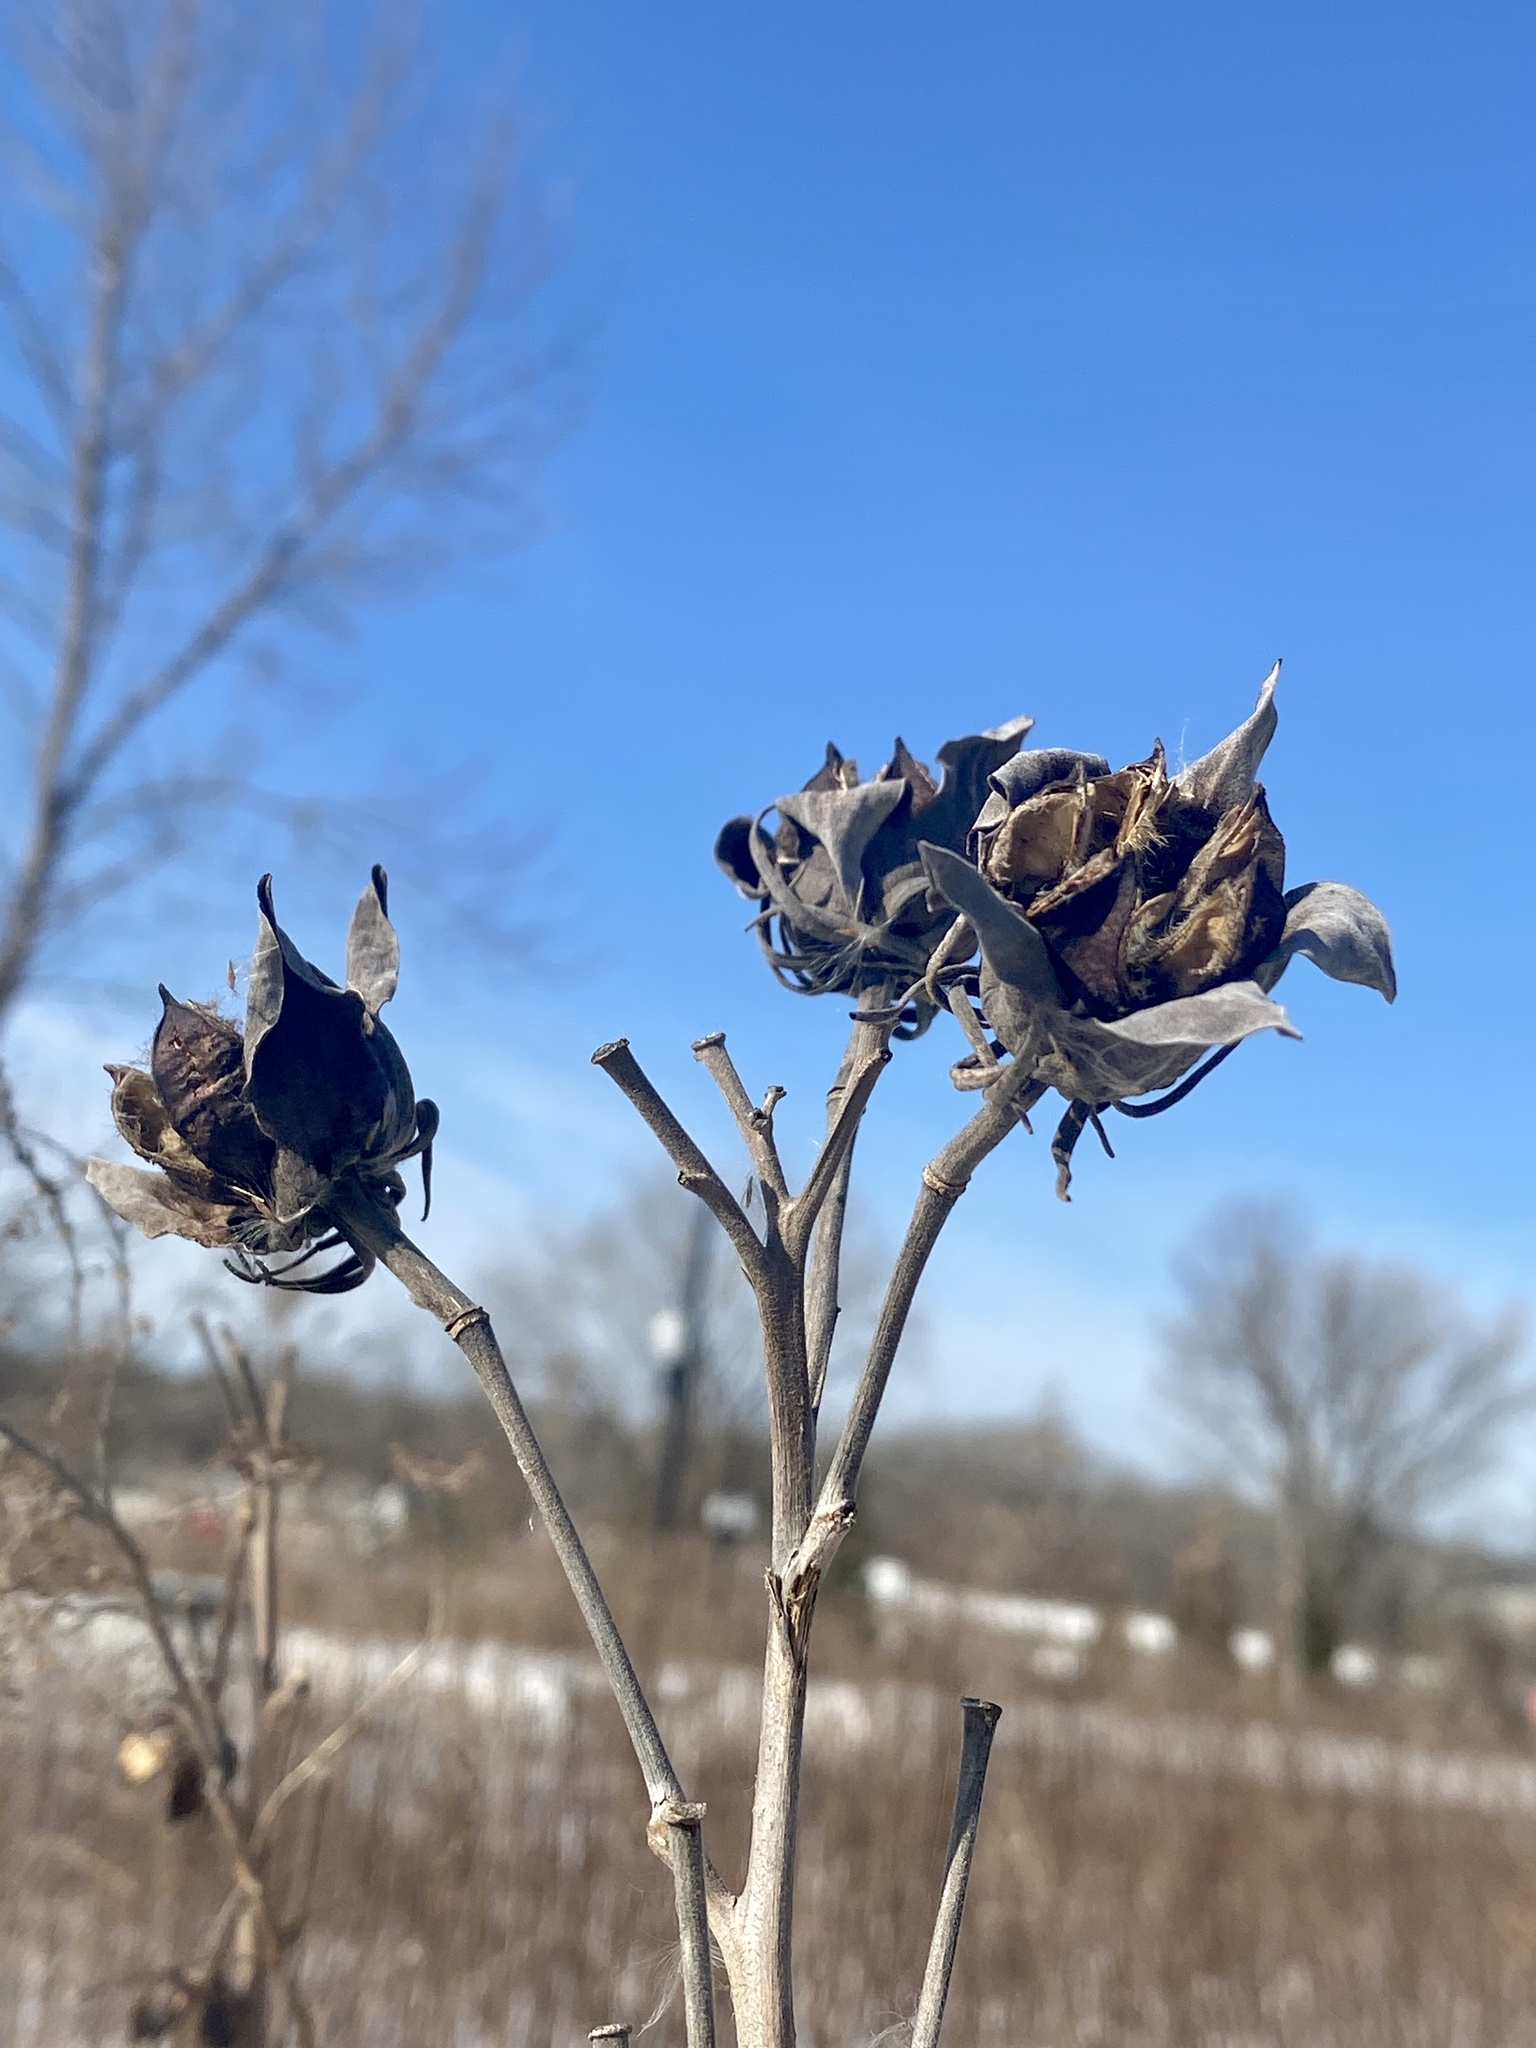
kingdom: Plantae
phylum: Tracheophyta
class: Magnoliopsida
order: Malvales
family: Malvaceae
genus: Hibiscus
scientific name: Hibiscus moscheutos
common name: Common rose-mallow
